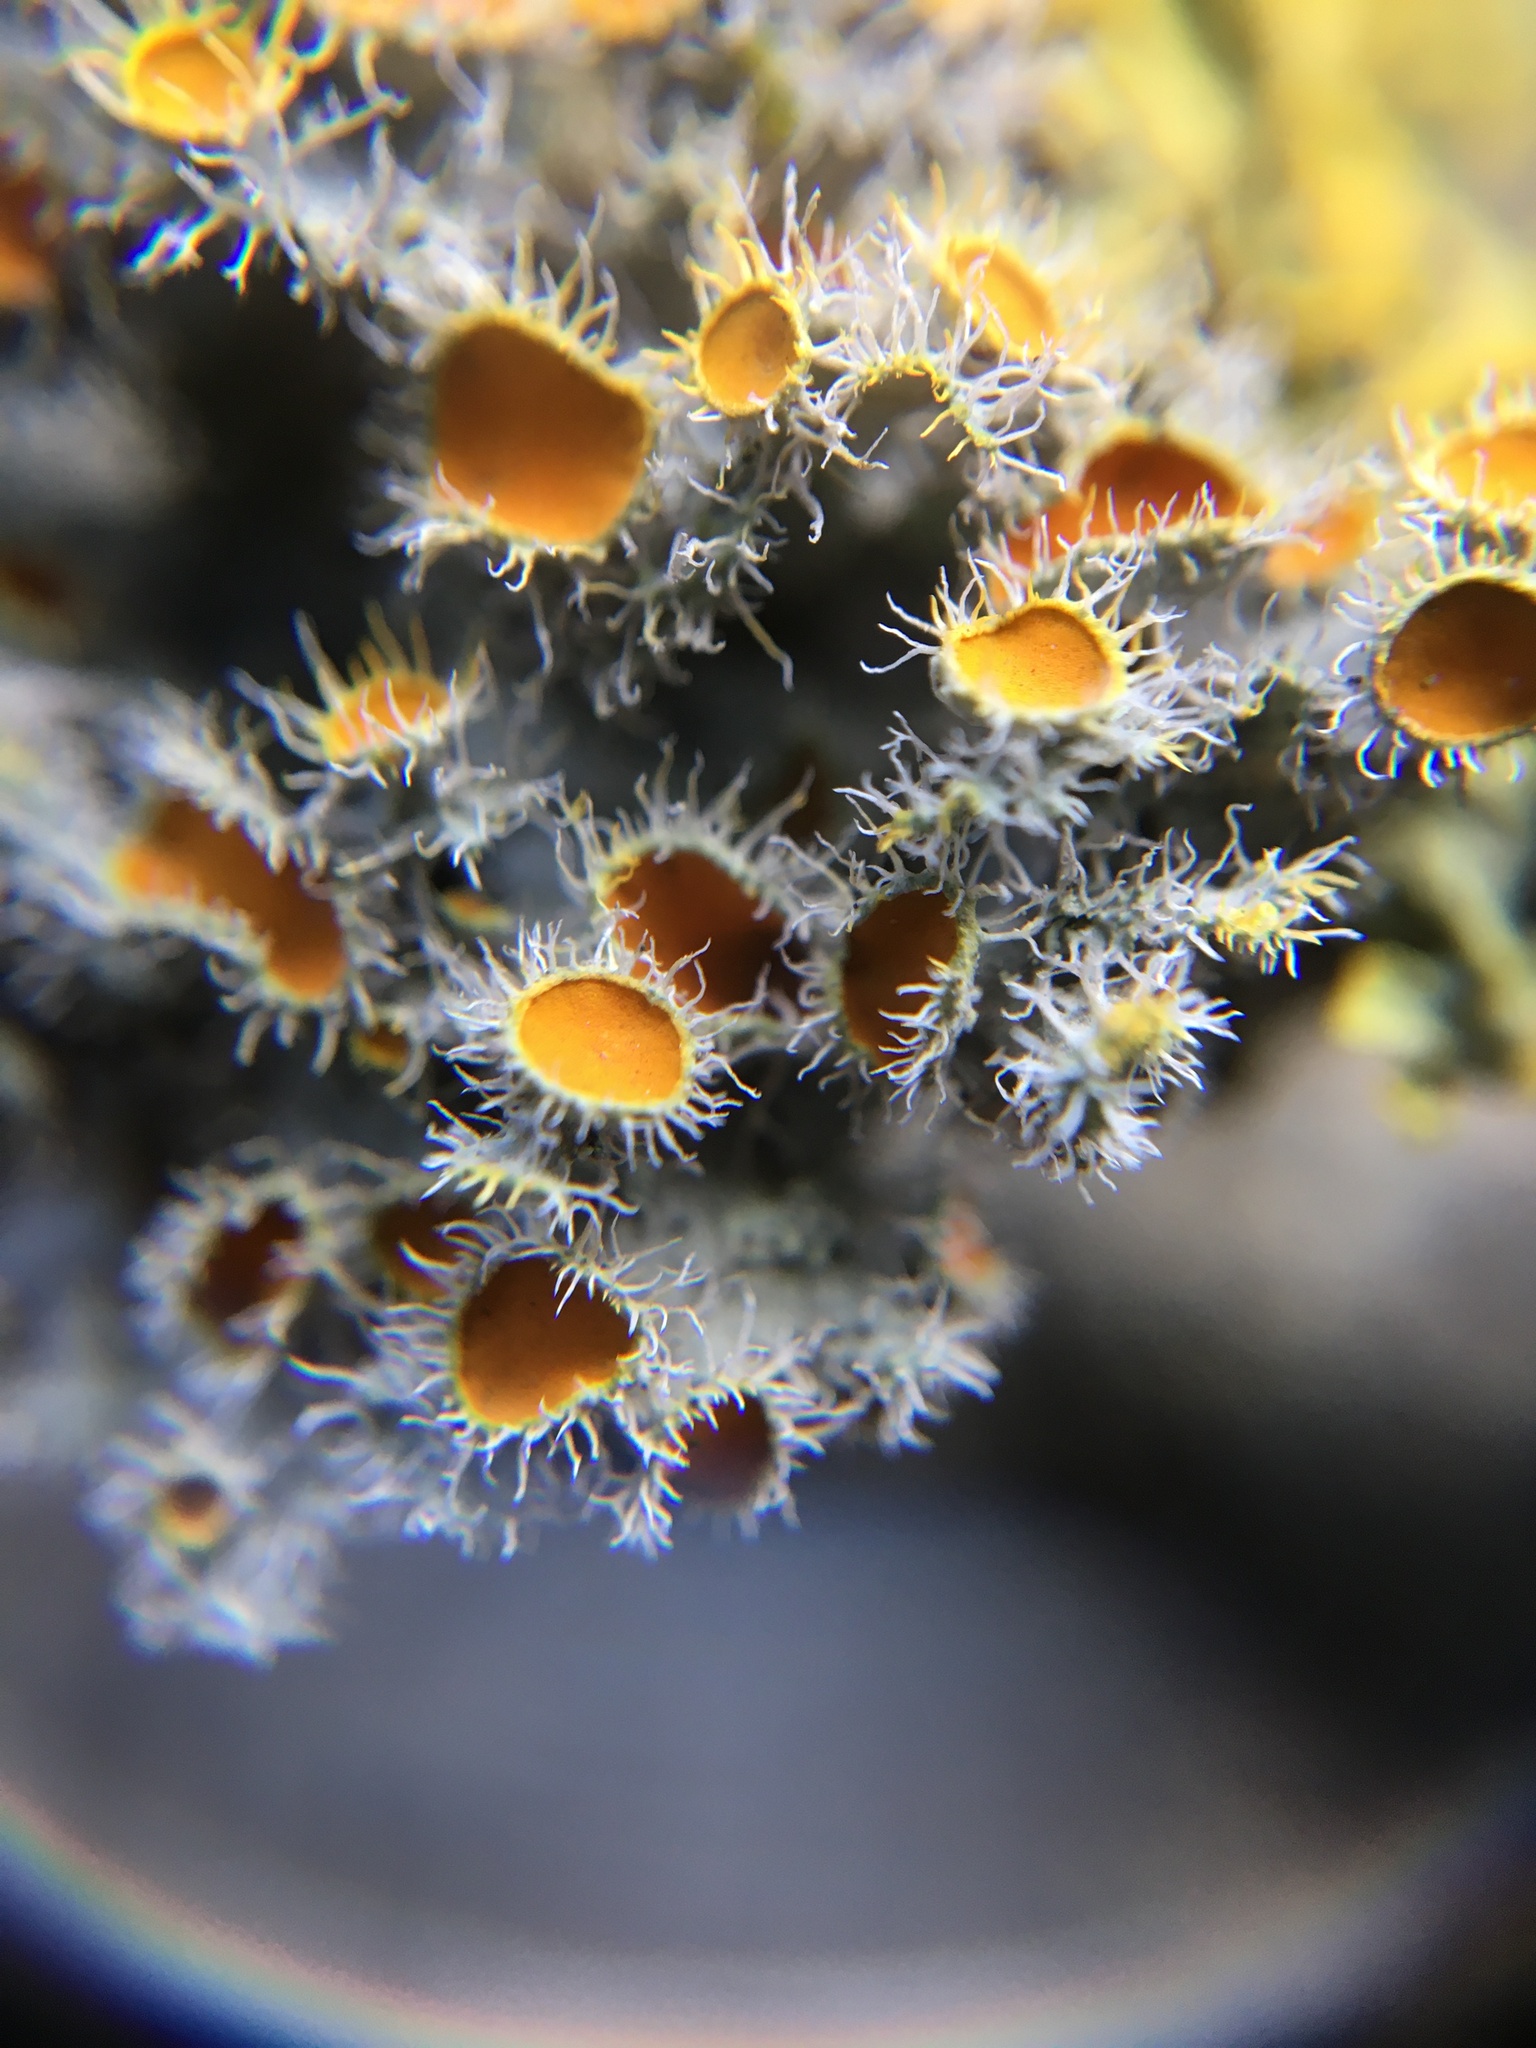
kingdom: Fungi
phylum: Ascomycota
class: Lecanoromycetes
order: Teloschistales
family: Teloschistaceae
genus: Niorma
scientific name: Niorma chrysophthalma
